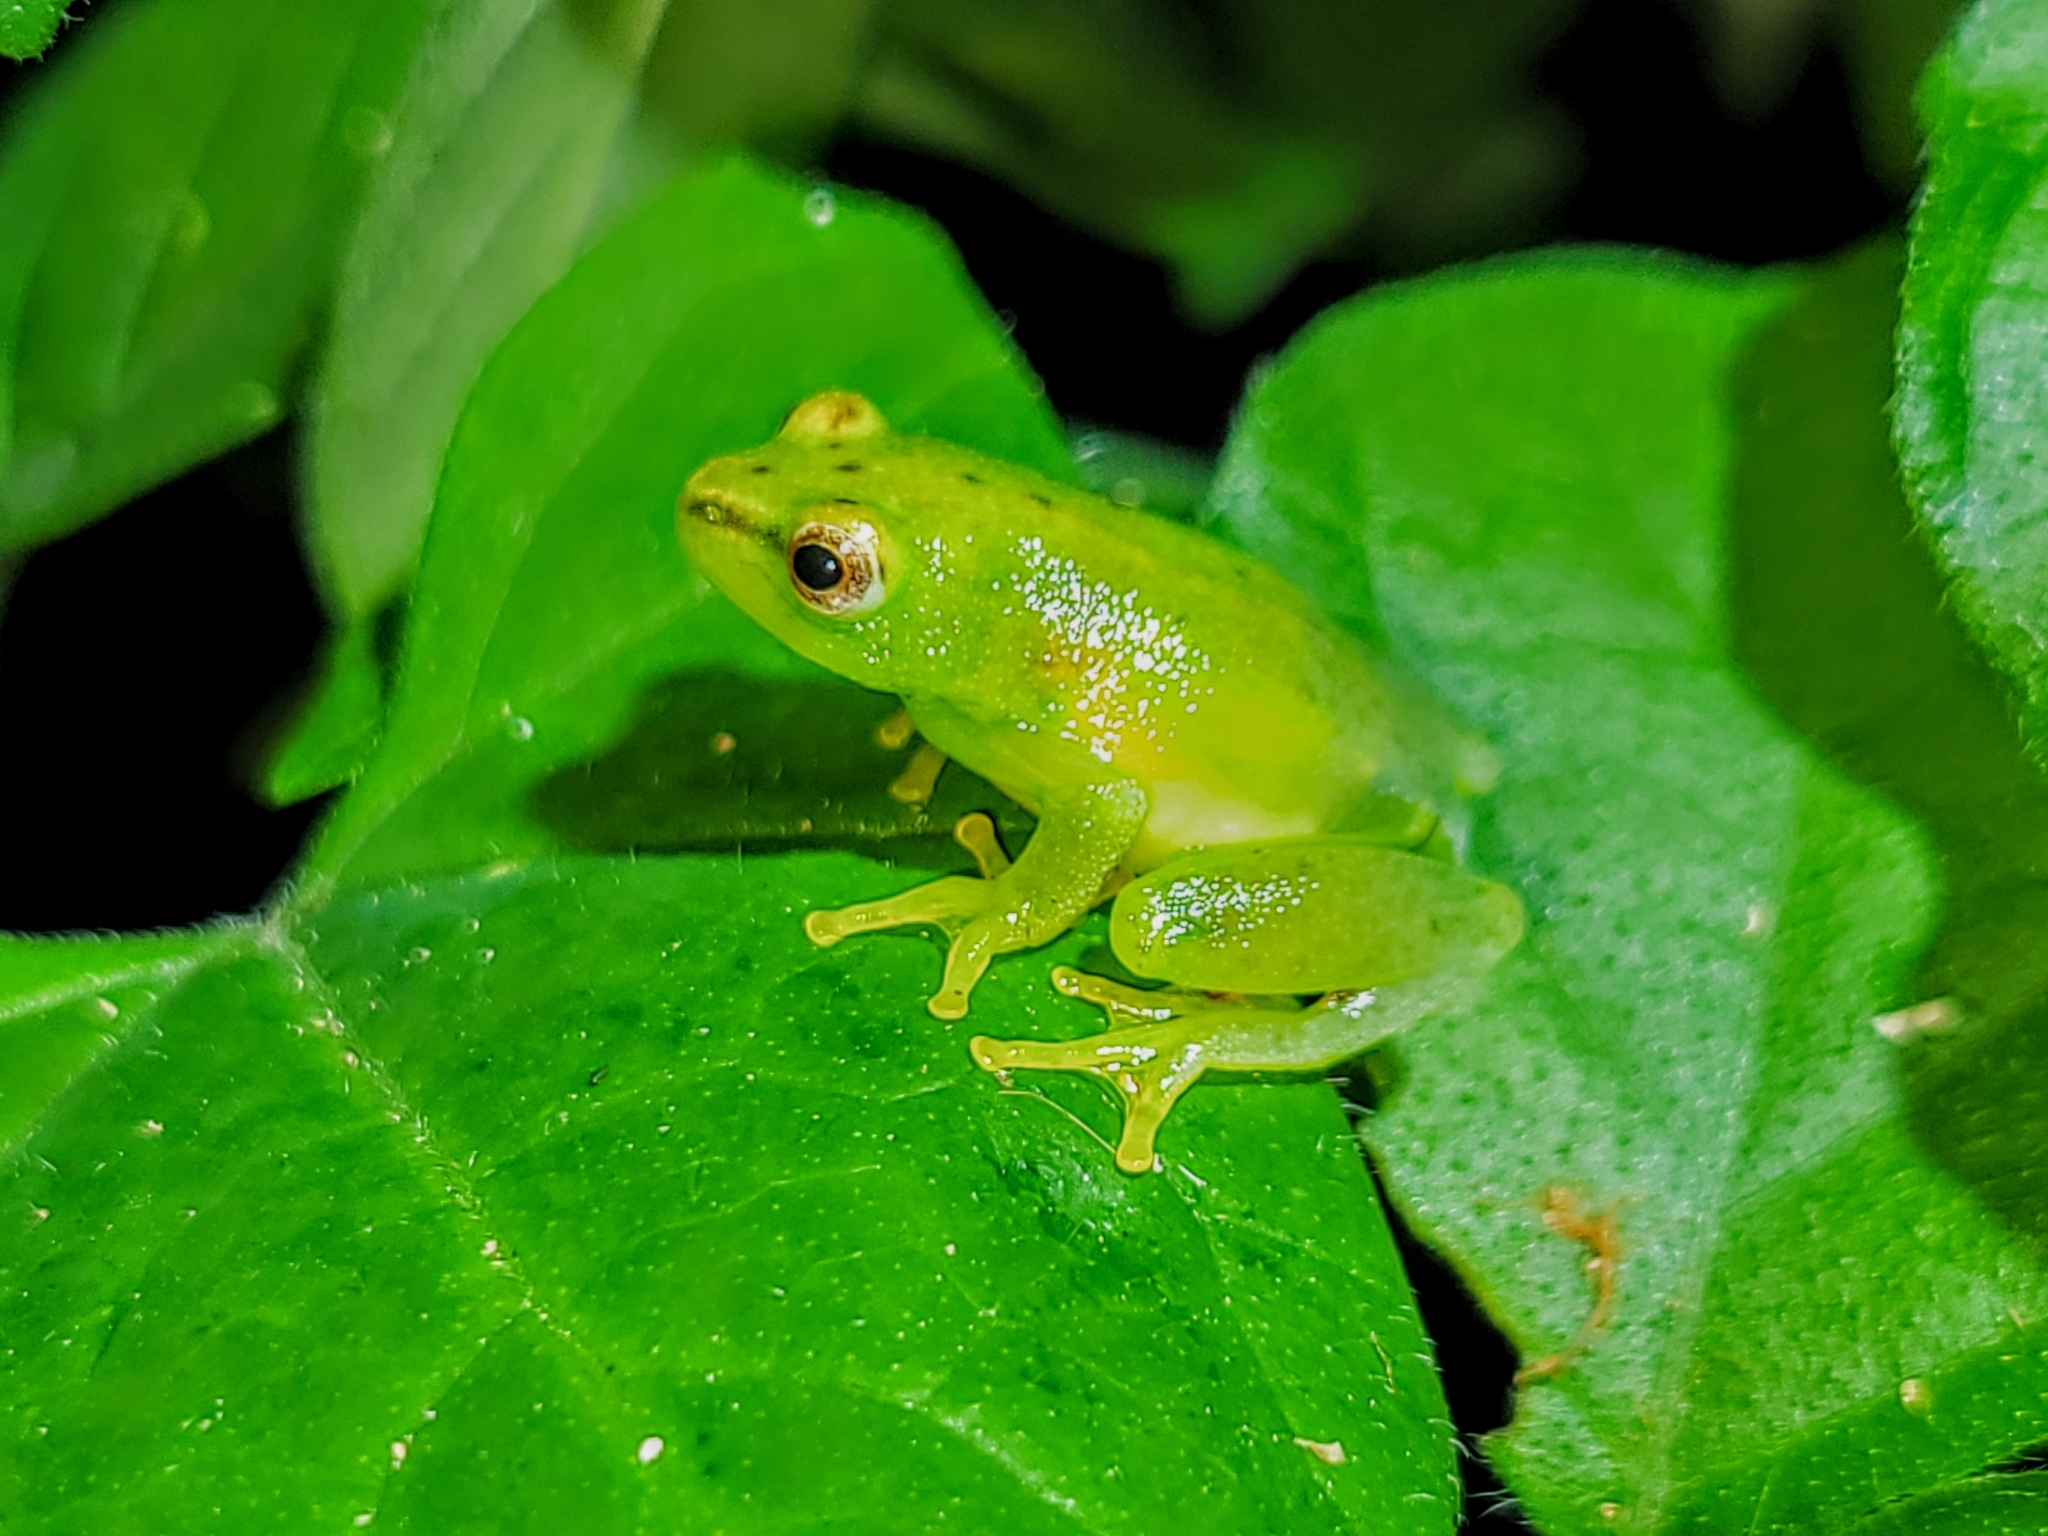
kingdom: Animalia
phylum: Chordata
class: Amphibia
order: Anura
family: Hyperoliidae
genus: Hyperolius
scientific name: Hyperolius pusillus
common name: Water lily reed frog
